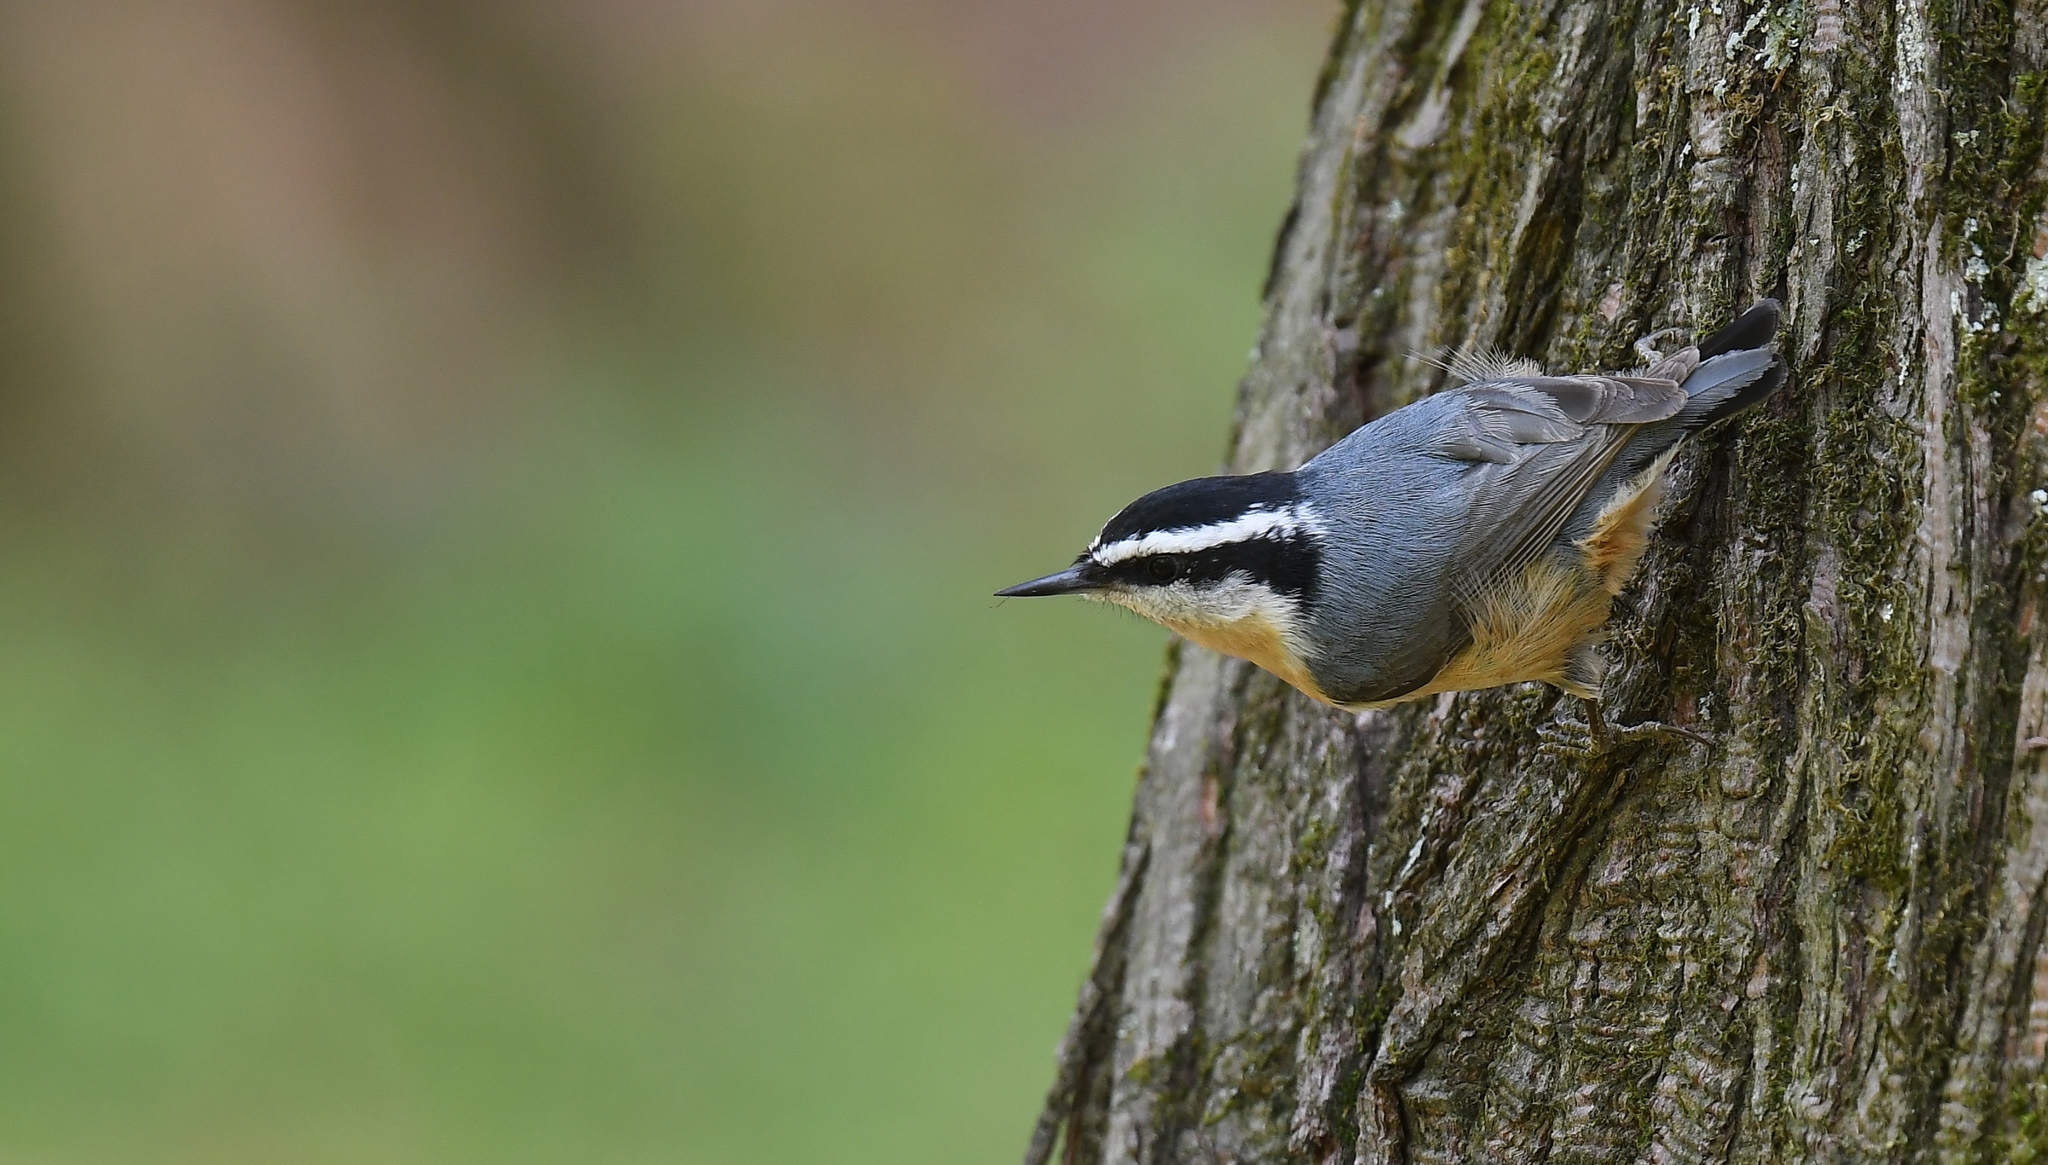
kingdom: Animalia
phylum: Chordata
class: Aves
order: Passeriformes
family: Sittidae
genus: Sitta
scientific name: Sitta canadensis
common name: Red-breasted nuthatch
